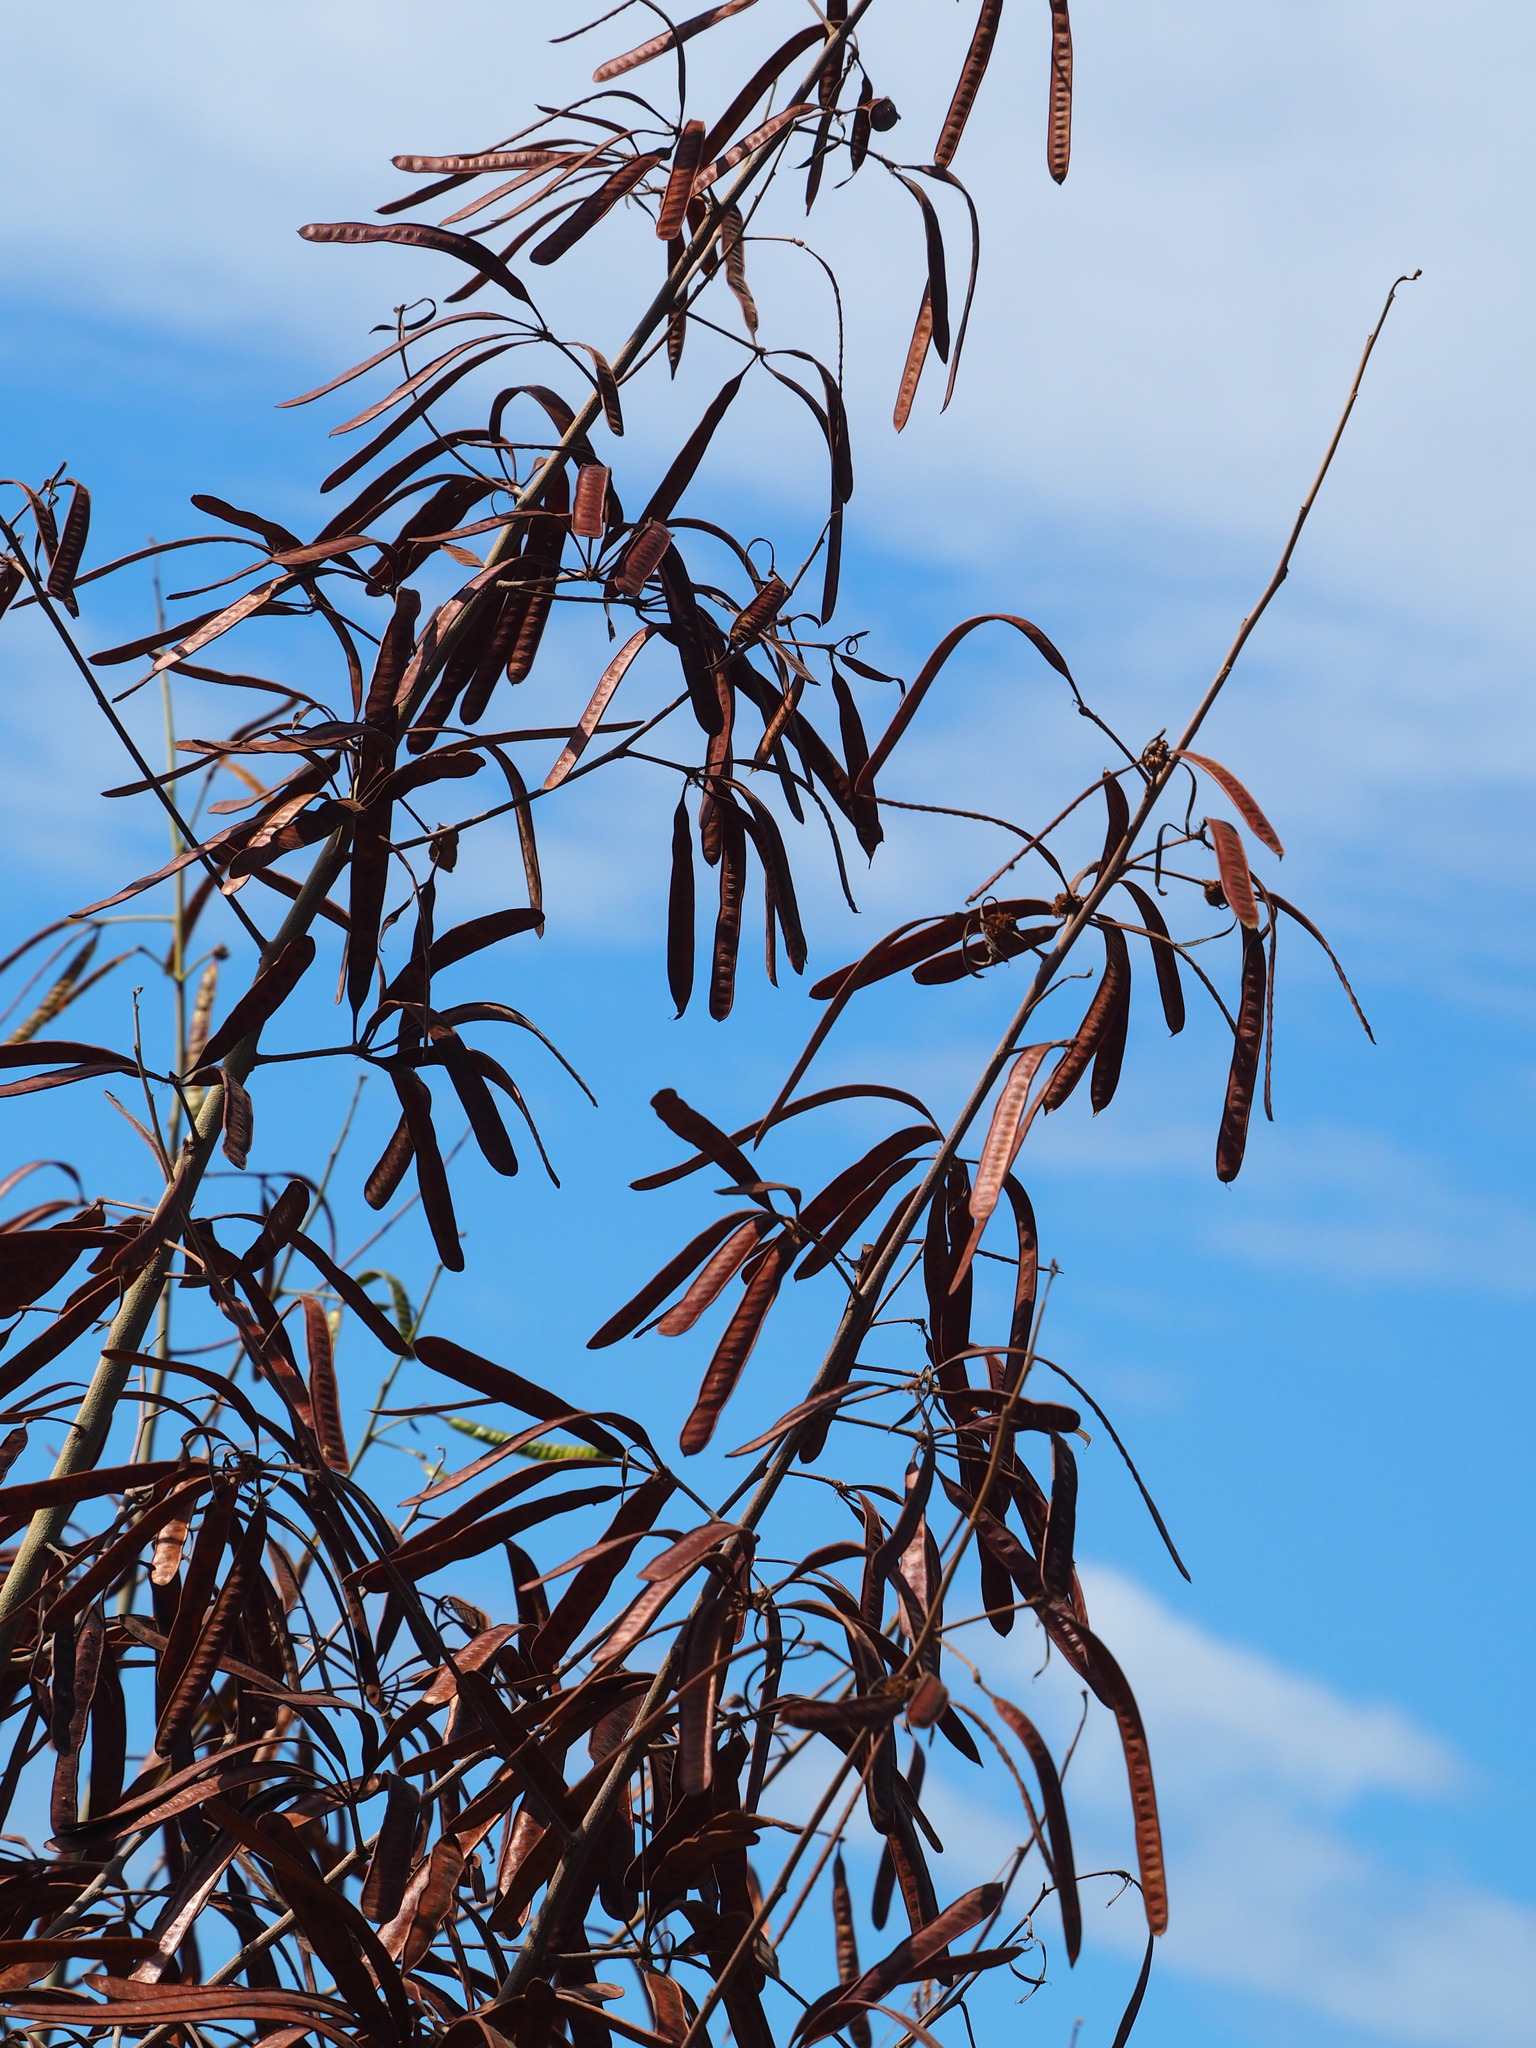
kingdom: Plantae
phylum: Tracheophyta
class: Magnoliopsida
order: Fabales
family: Fabaceae
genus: Leucaena
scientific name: Leucaena leucocephala
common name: White leadtree
